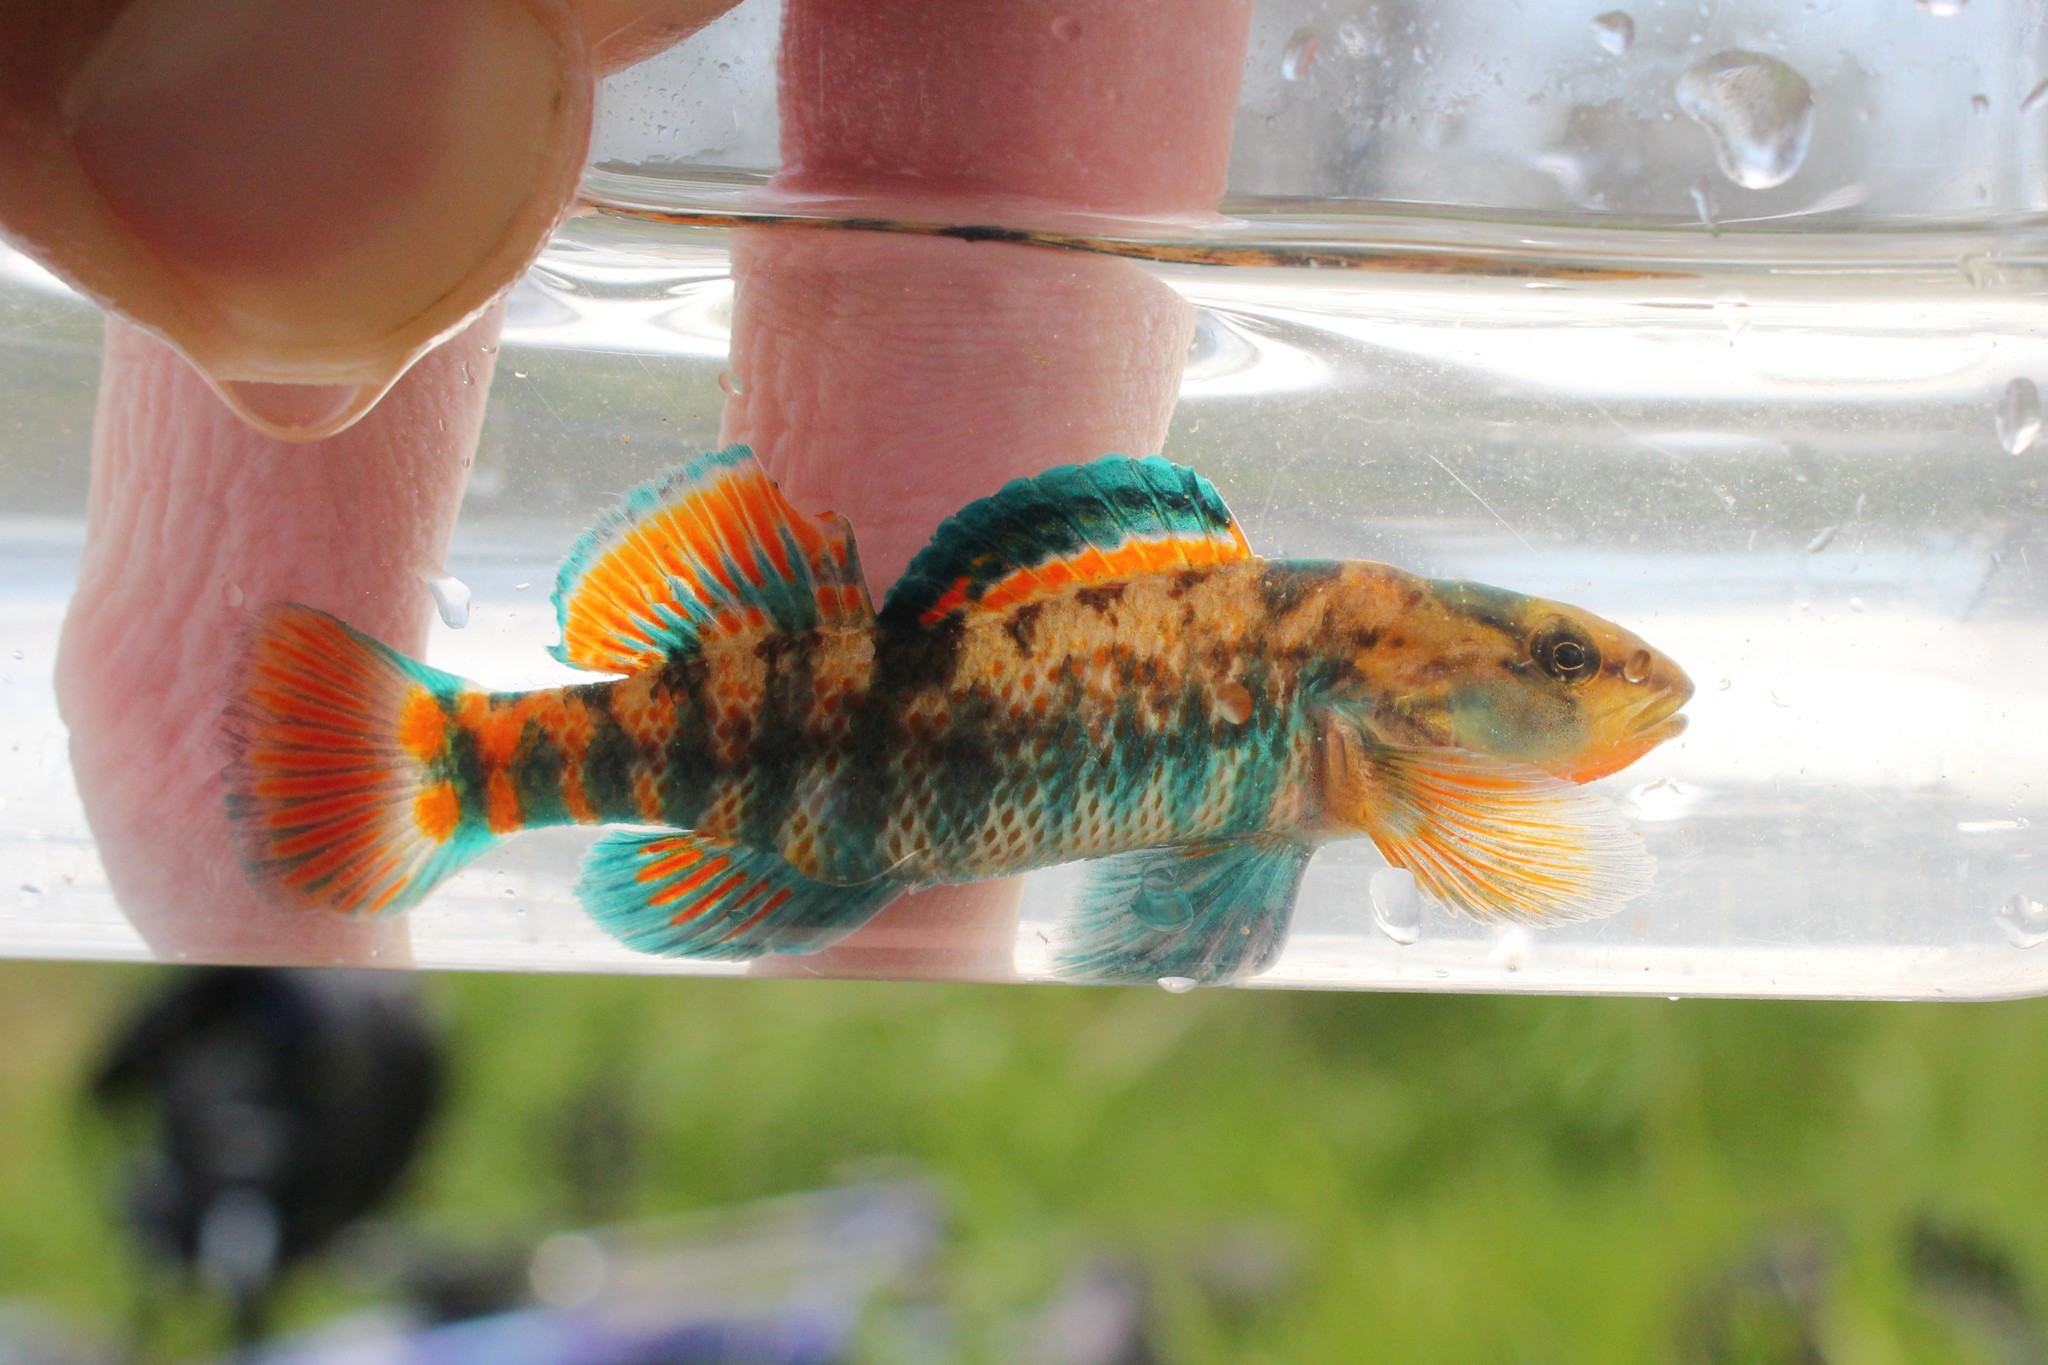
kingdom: Animalia
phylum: Chordata
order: Perciformes
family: Percidae
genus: Etheostoma
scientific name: Etheostoma caeruleum
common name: Rainbow darter
